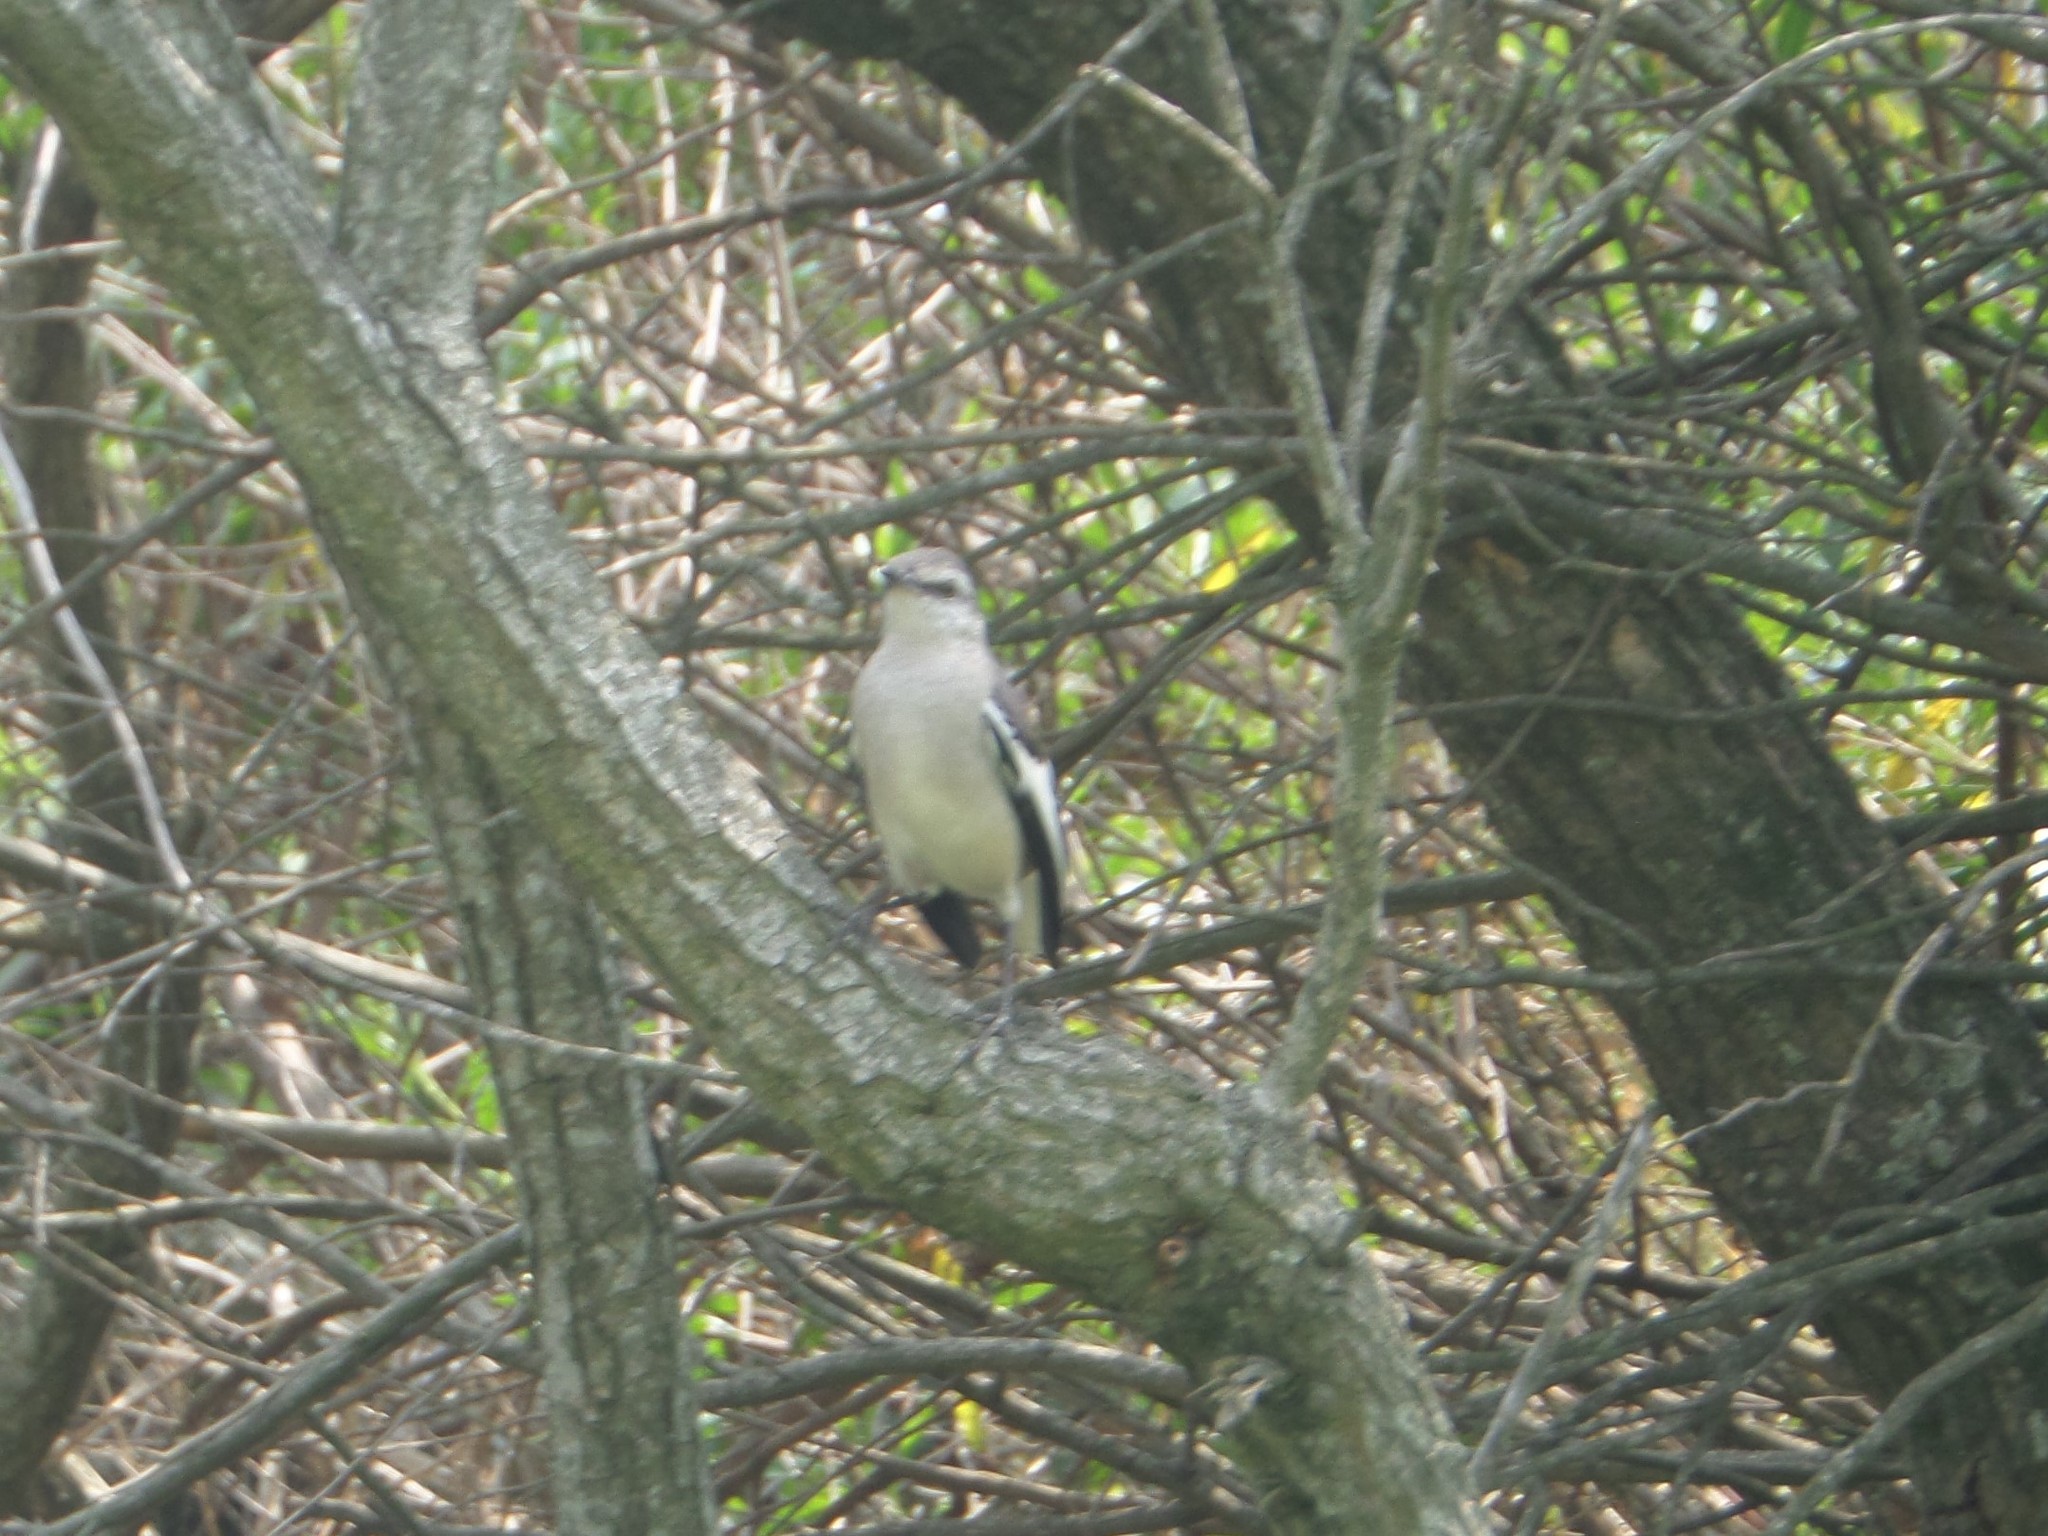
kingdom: Animalia
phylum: Chordata
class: Aves
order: Passeriformes
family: Mimidae
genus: Mimus
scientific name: Mimus triurus
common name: White-banded mockingbird
